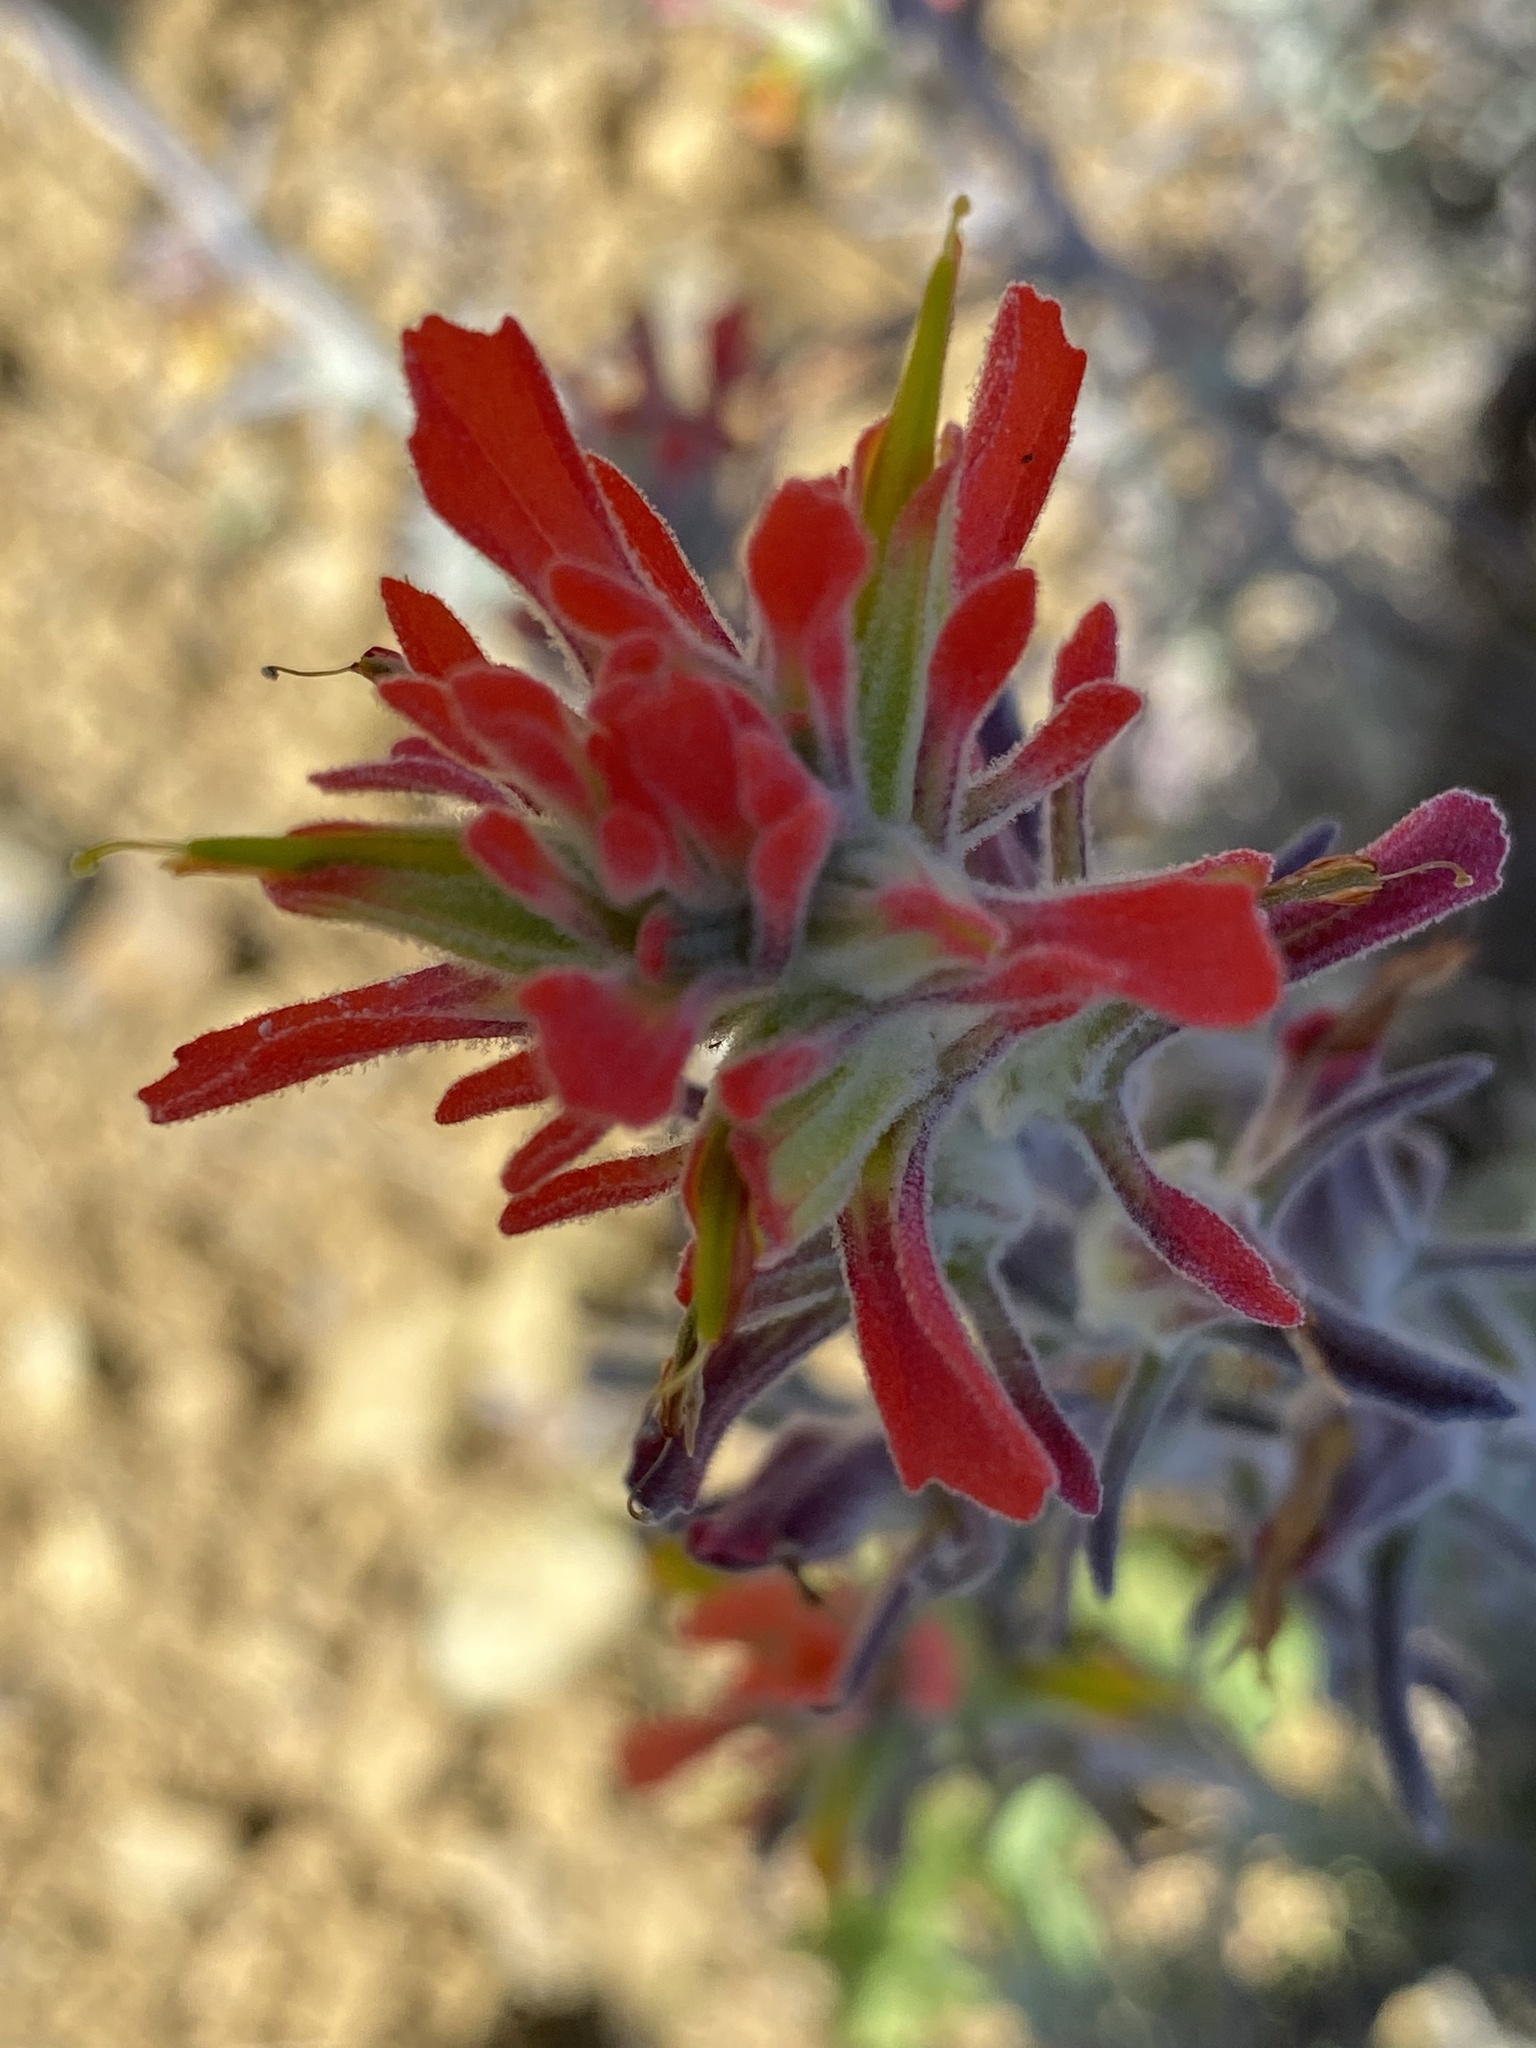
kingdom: Plantae
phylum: Tracheophyta
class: Magnoliopsida
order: Lamiales
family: Orobanchaceae
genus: Castilleja
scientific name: Castilleja foliolosa
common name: Woolly indian paintbrush
